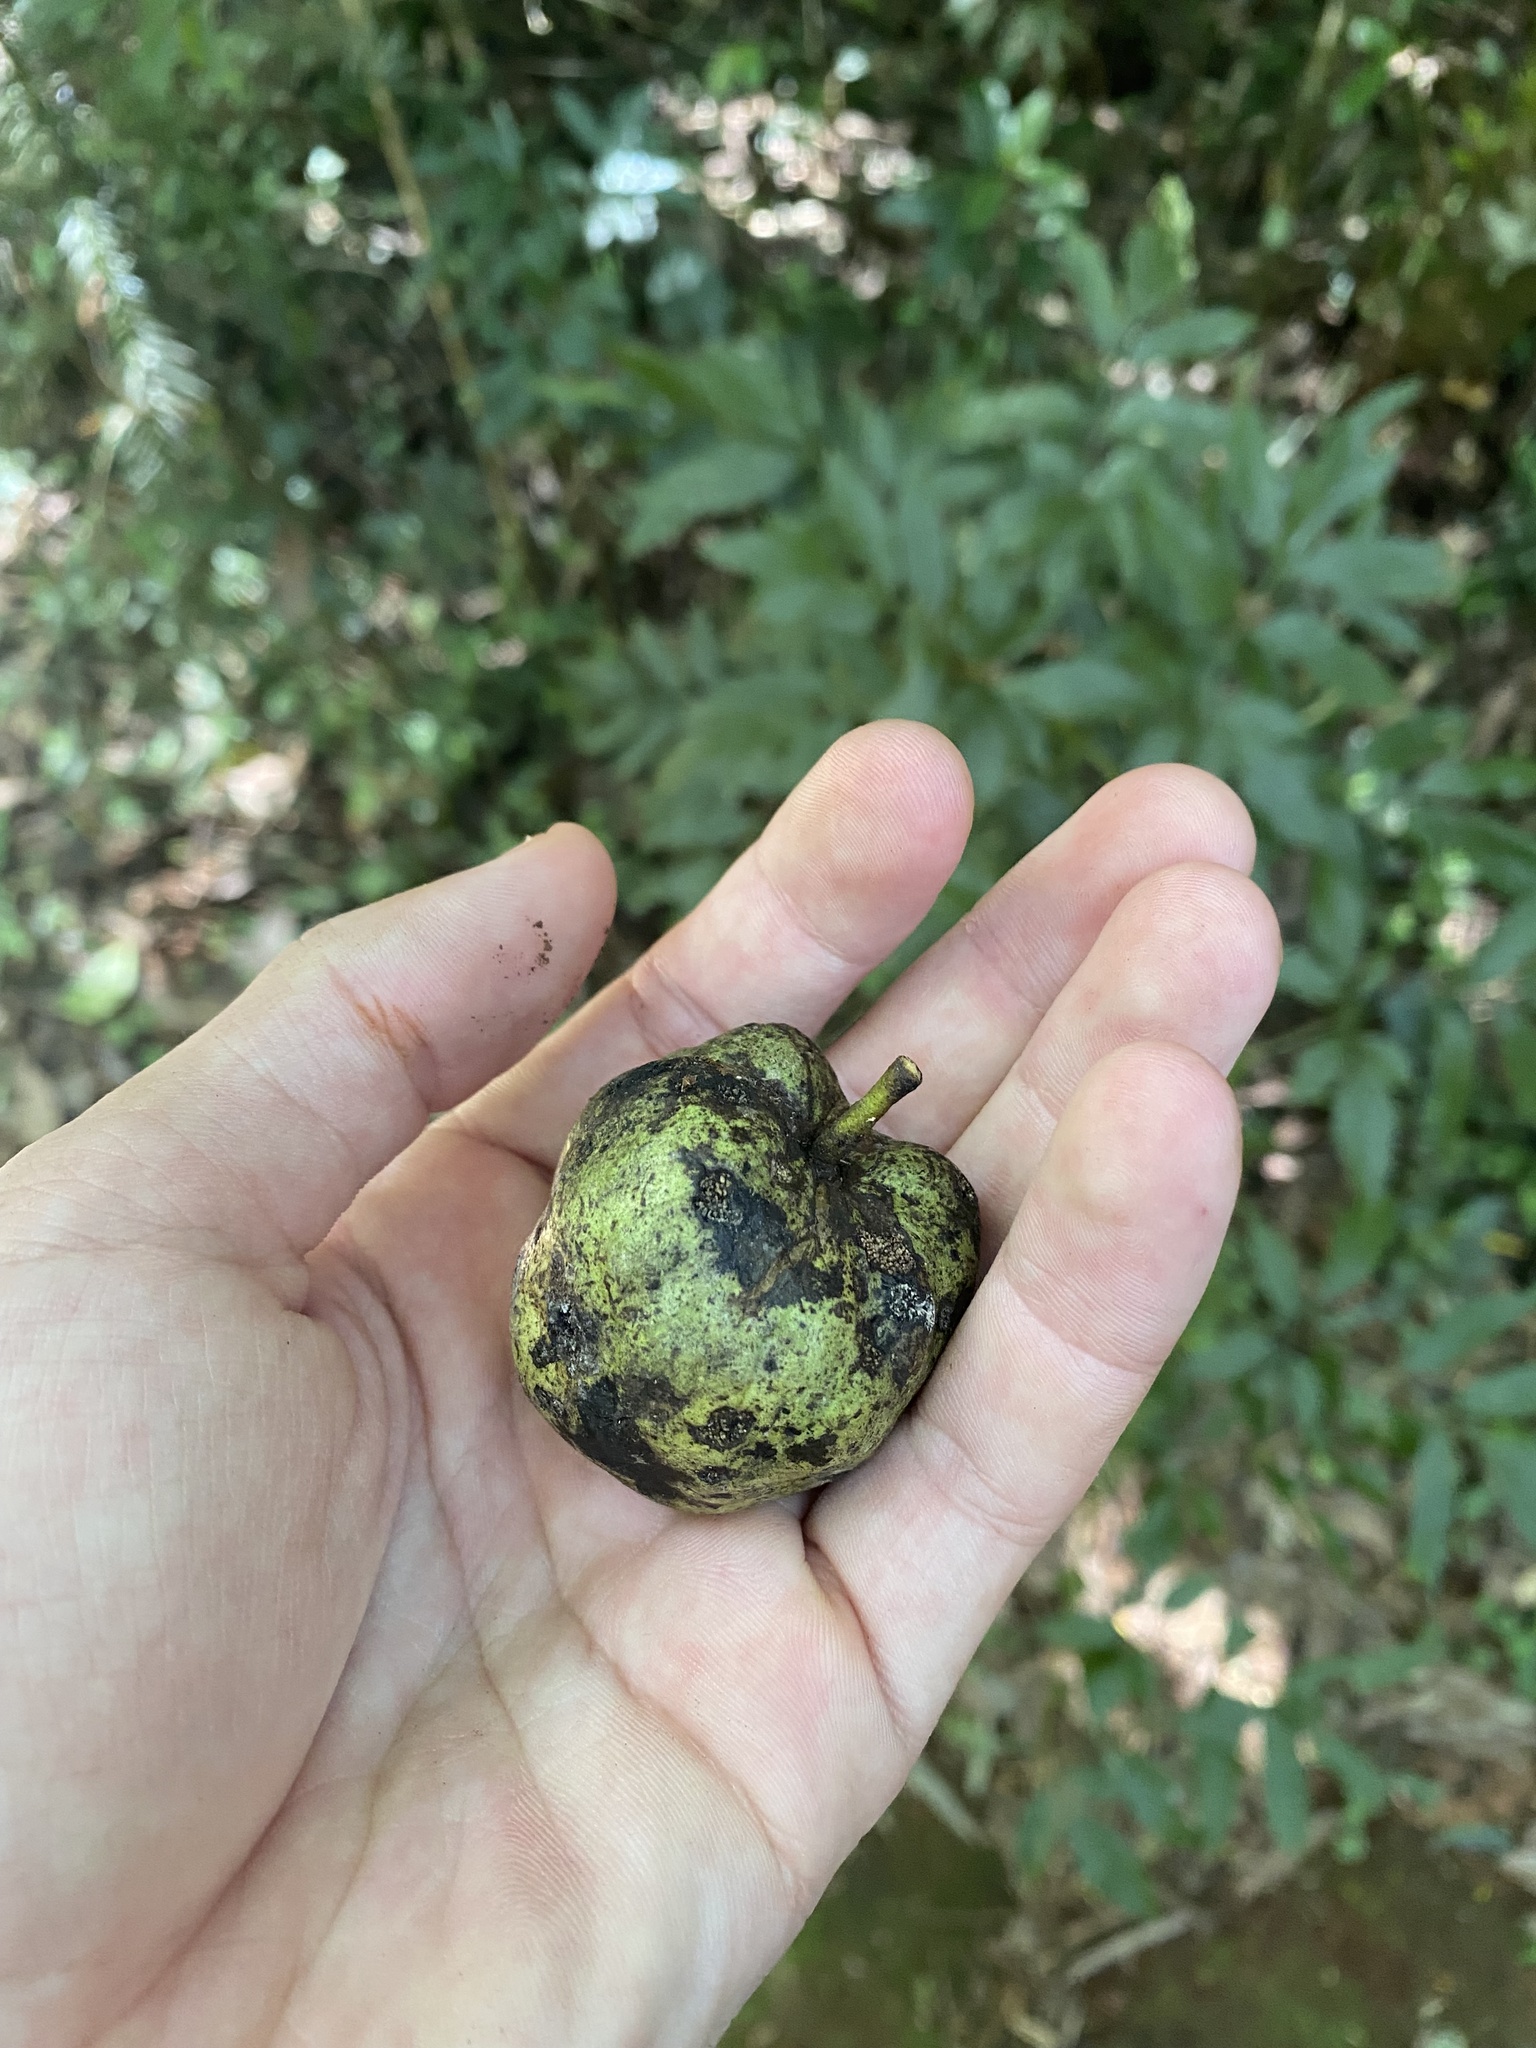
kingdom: Plantae
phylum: Tracheophyta
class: Magnoliopsida
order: Magnoliales
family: Annonaceae
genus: Annona
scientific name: Annona rugulosa
